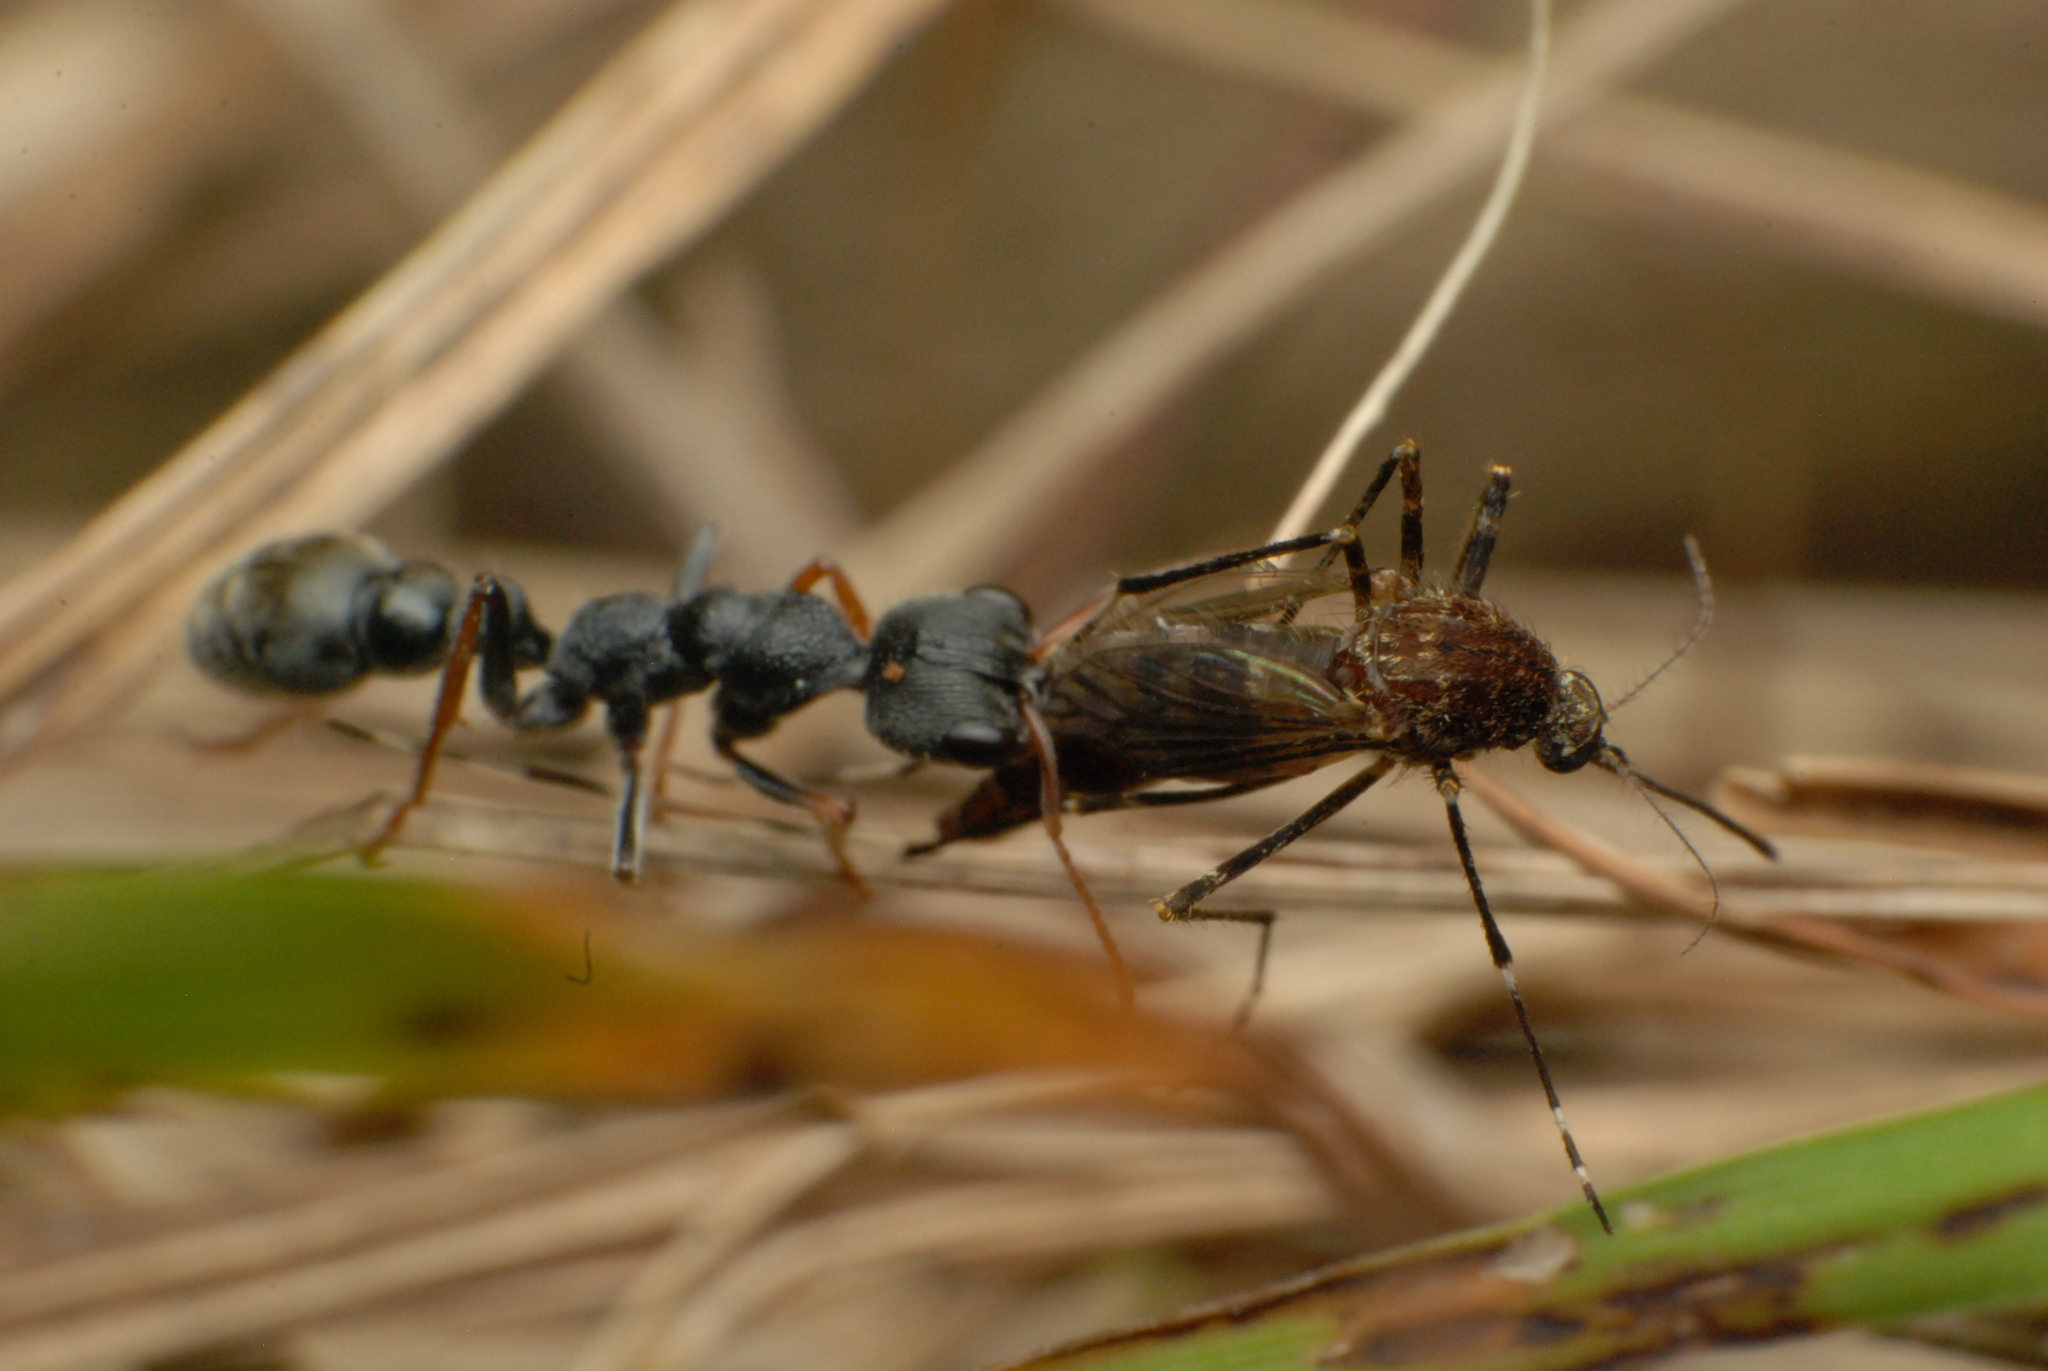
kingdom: Animalia
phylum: Arthropoda
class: Insecta
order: Hymenoptera
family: Formicidae
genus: Myrmecia
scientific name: Myrmecia urens
